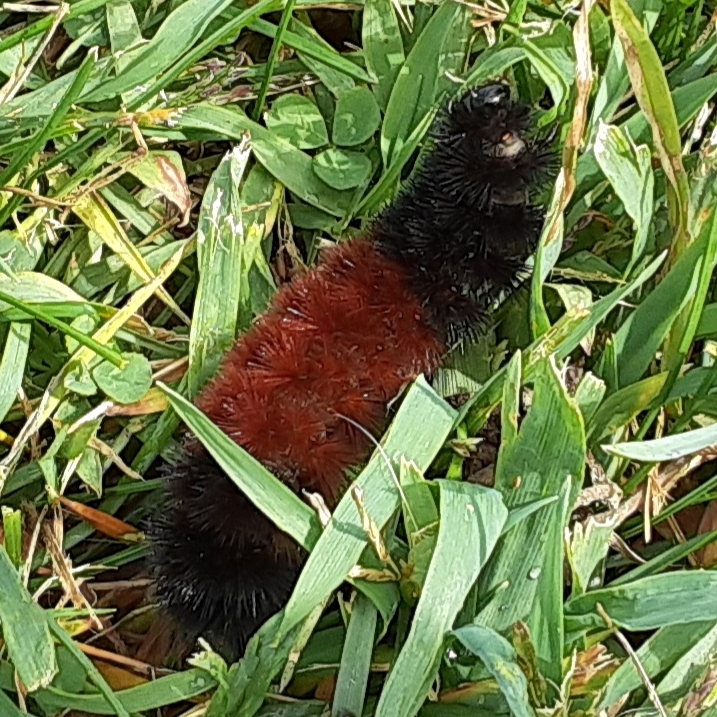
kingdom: Animalia
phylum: Arthropoda
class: Insecta
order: Lepidoptera
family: Erebidae
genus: Pyrrharctia
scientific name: Pyrrharctia isabella
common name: Isabella tiger moth
